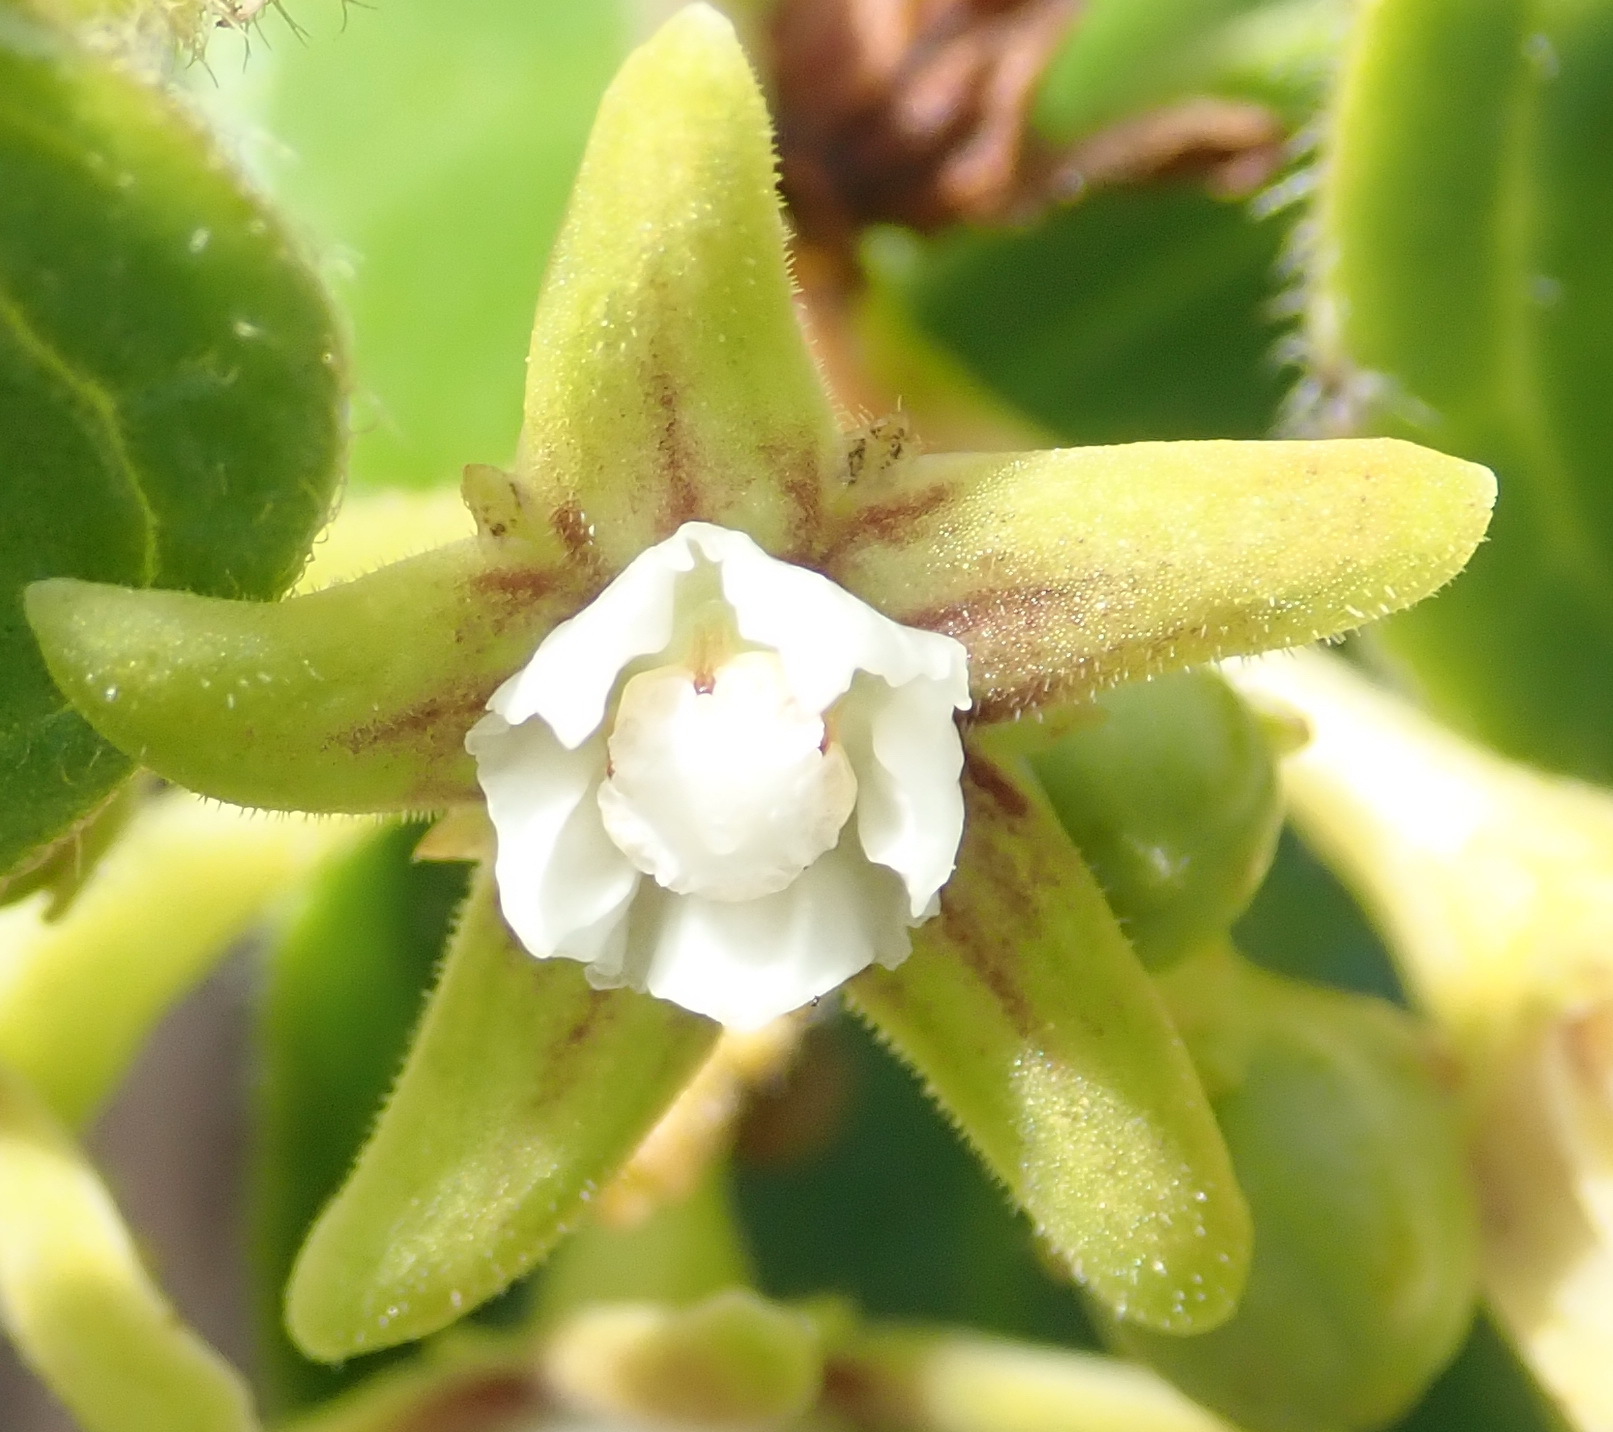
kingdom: Plantae
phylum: Tracheophyta
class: Magnoliopsida
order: Gentianales
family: Apocynaceae
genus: Cynanchum
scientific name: Cynanchum obtusifolium
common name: Monkey-rope
